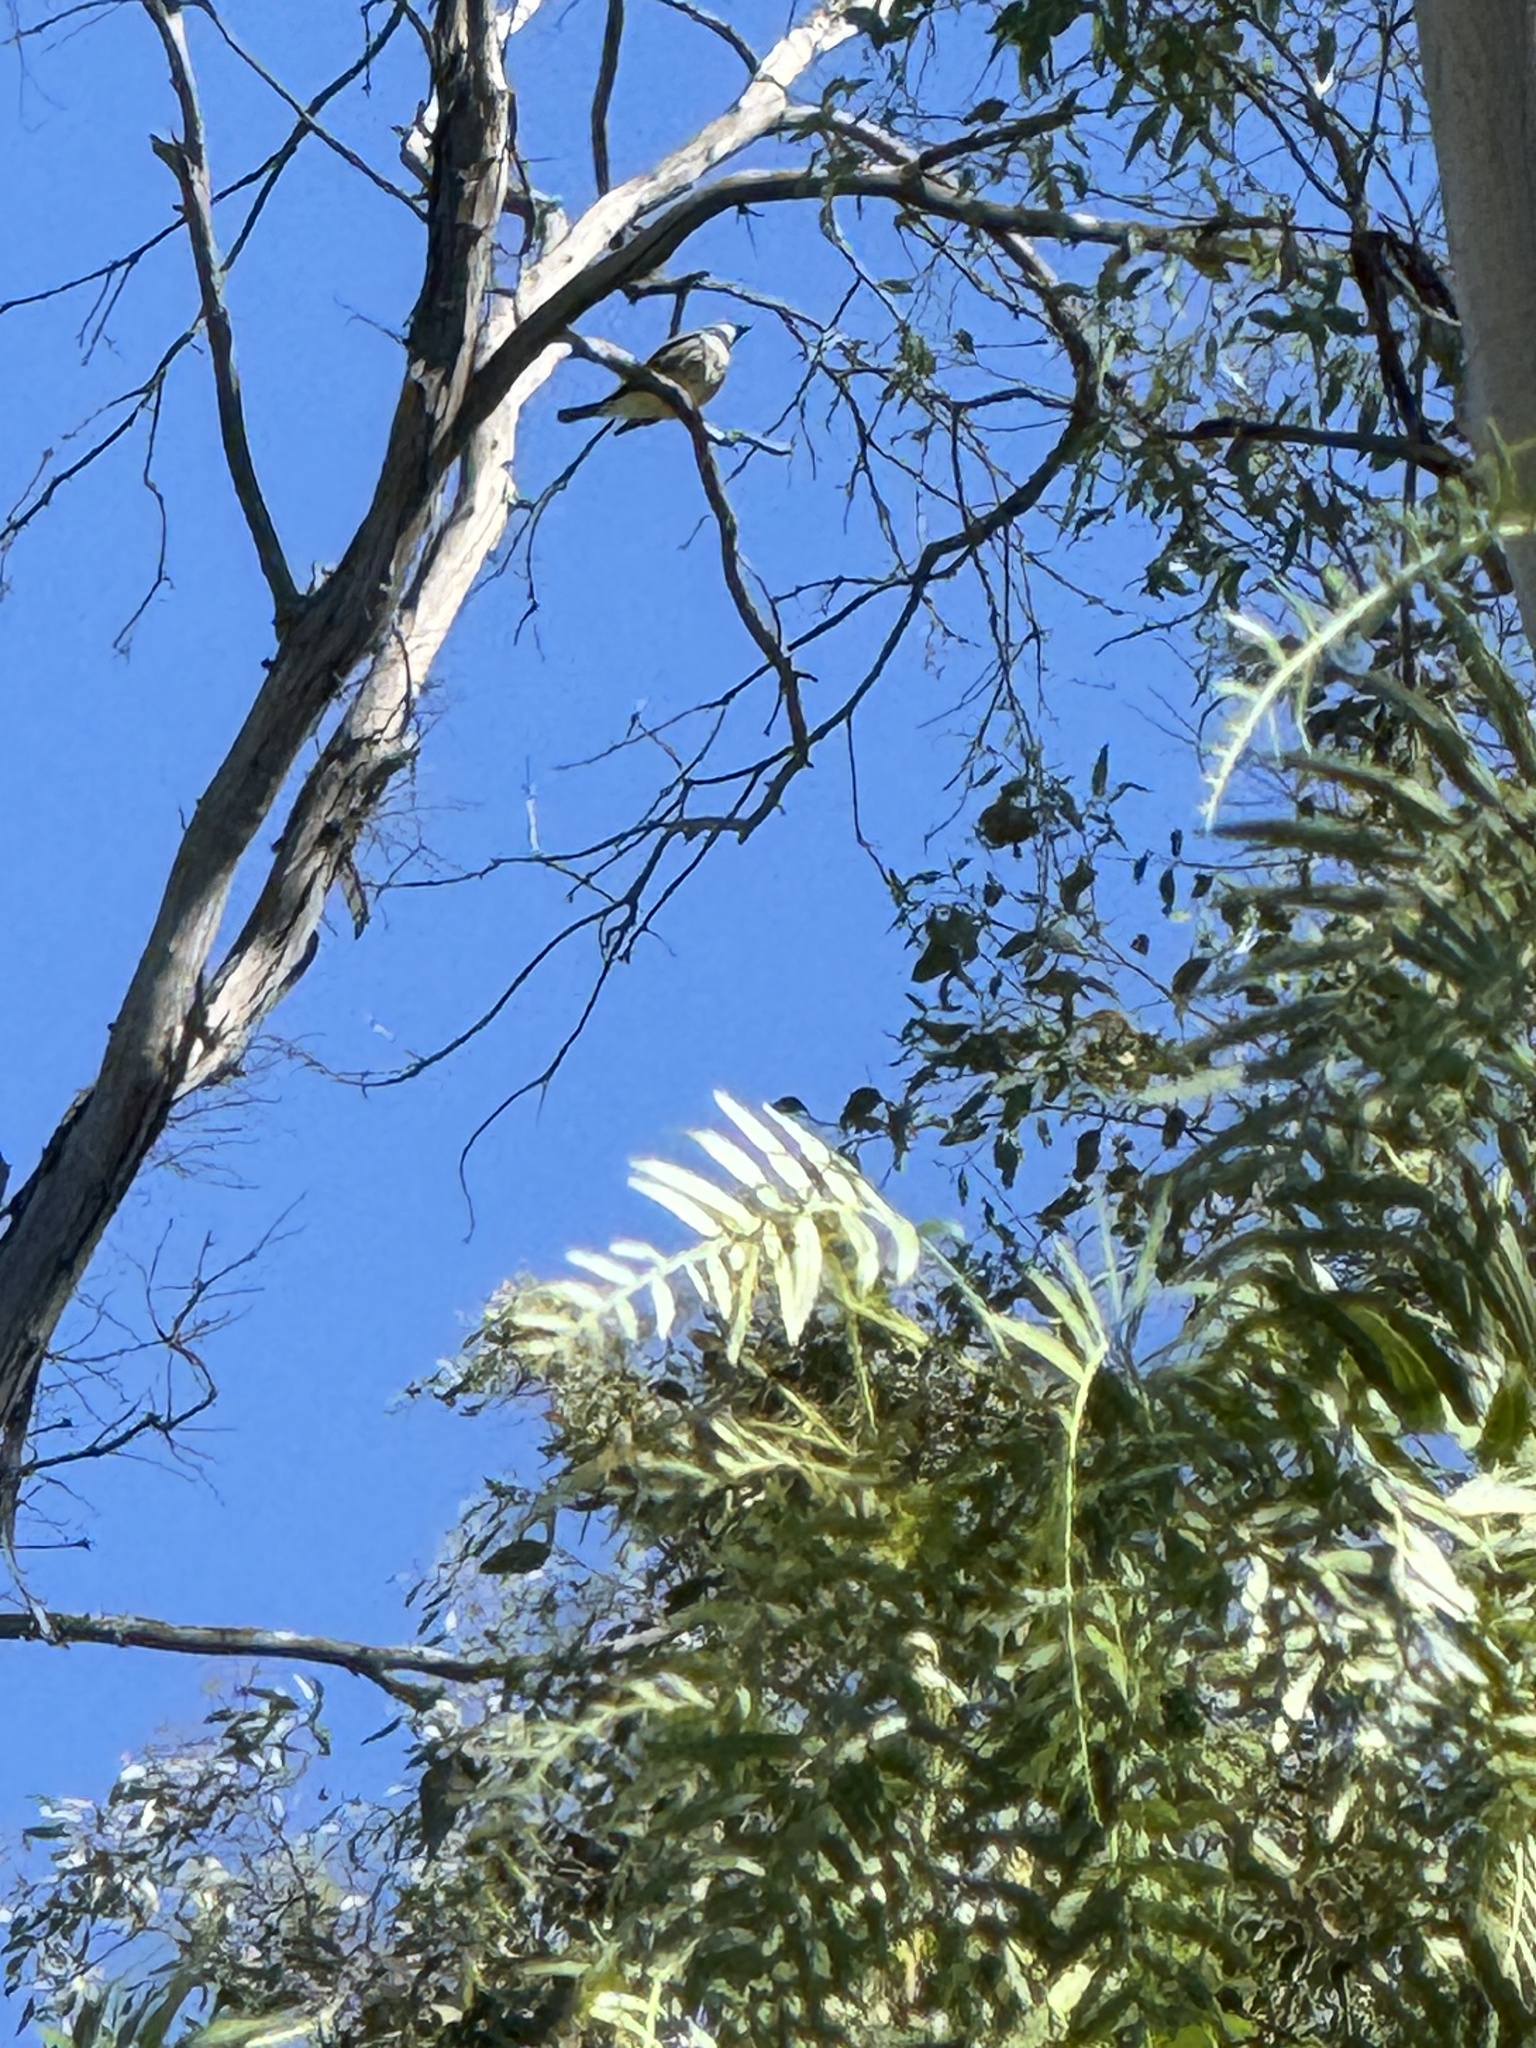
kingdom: Animalia
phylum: Chordata
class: Aves
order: Passeriformes
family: Tyrannidae
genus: Tyrannus
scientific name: Tyrannus vociferans
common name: Cassin's kingbird
